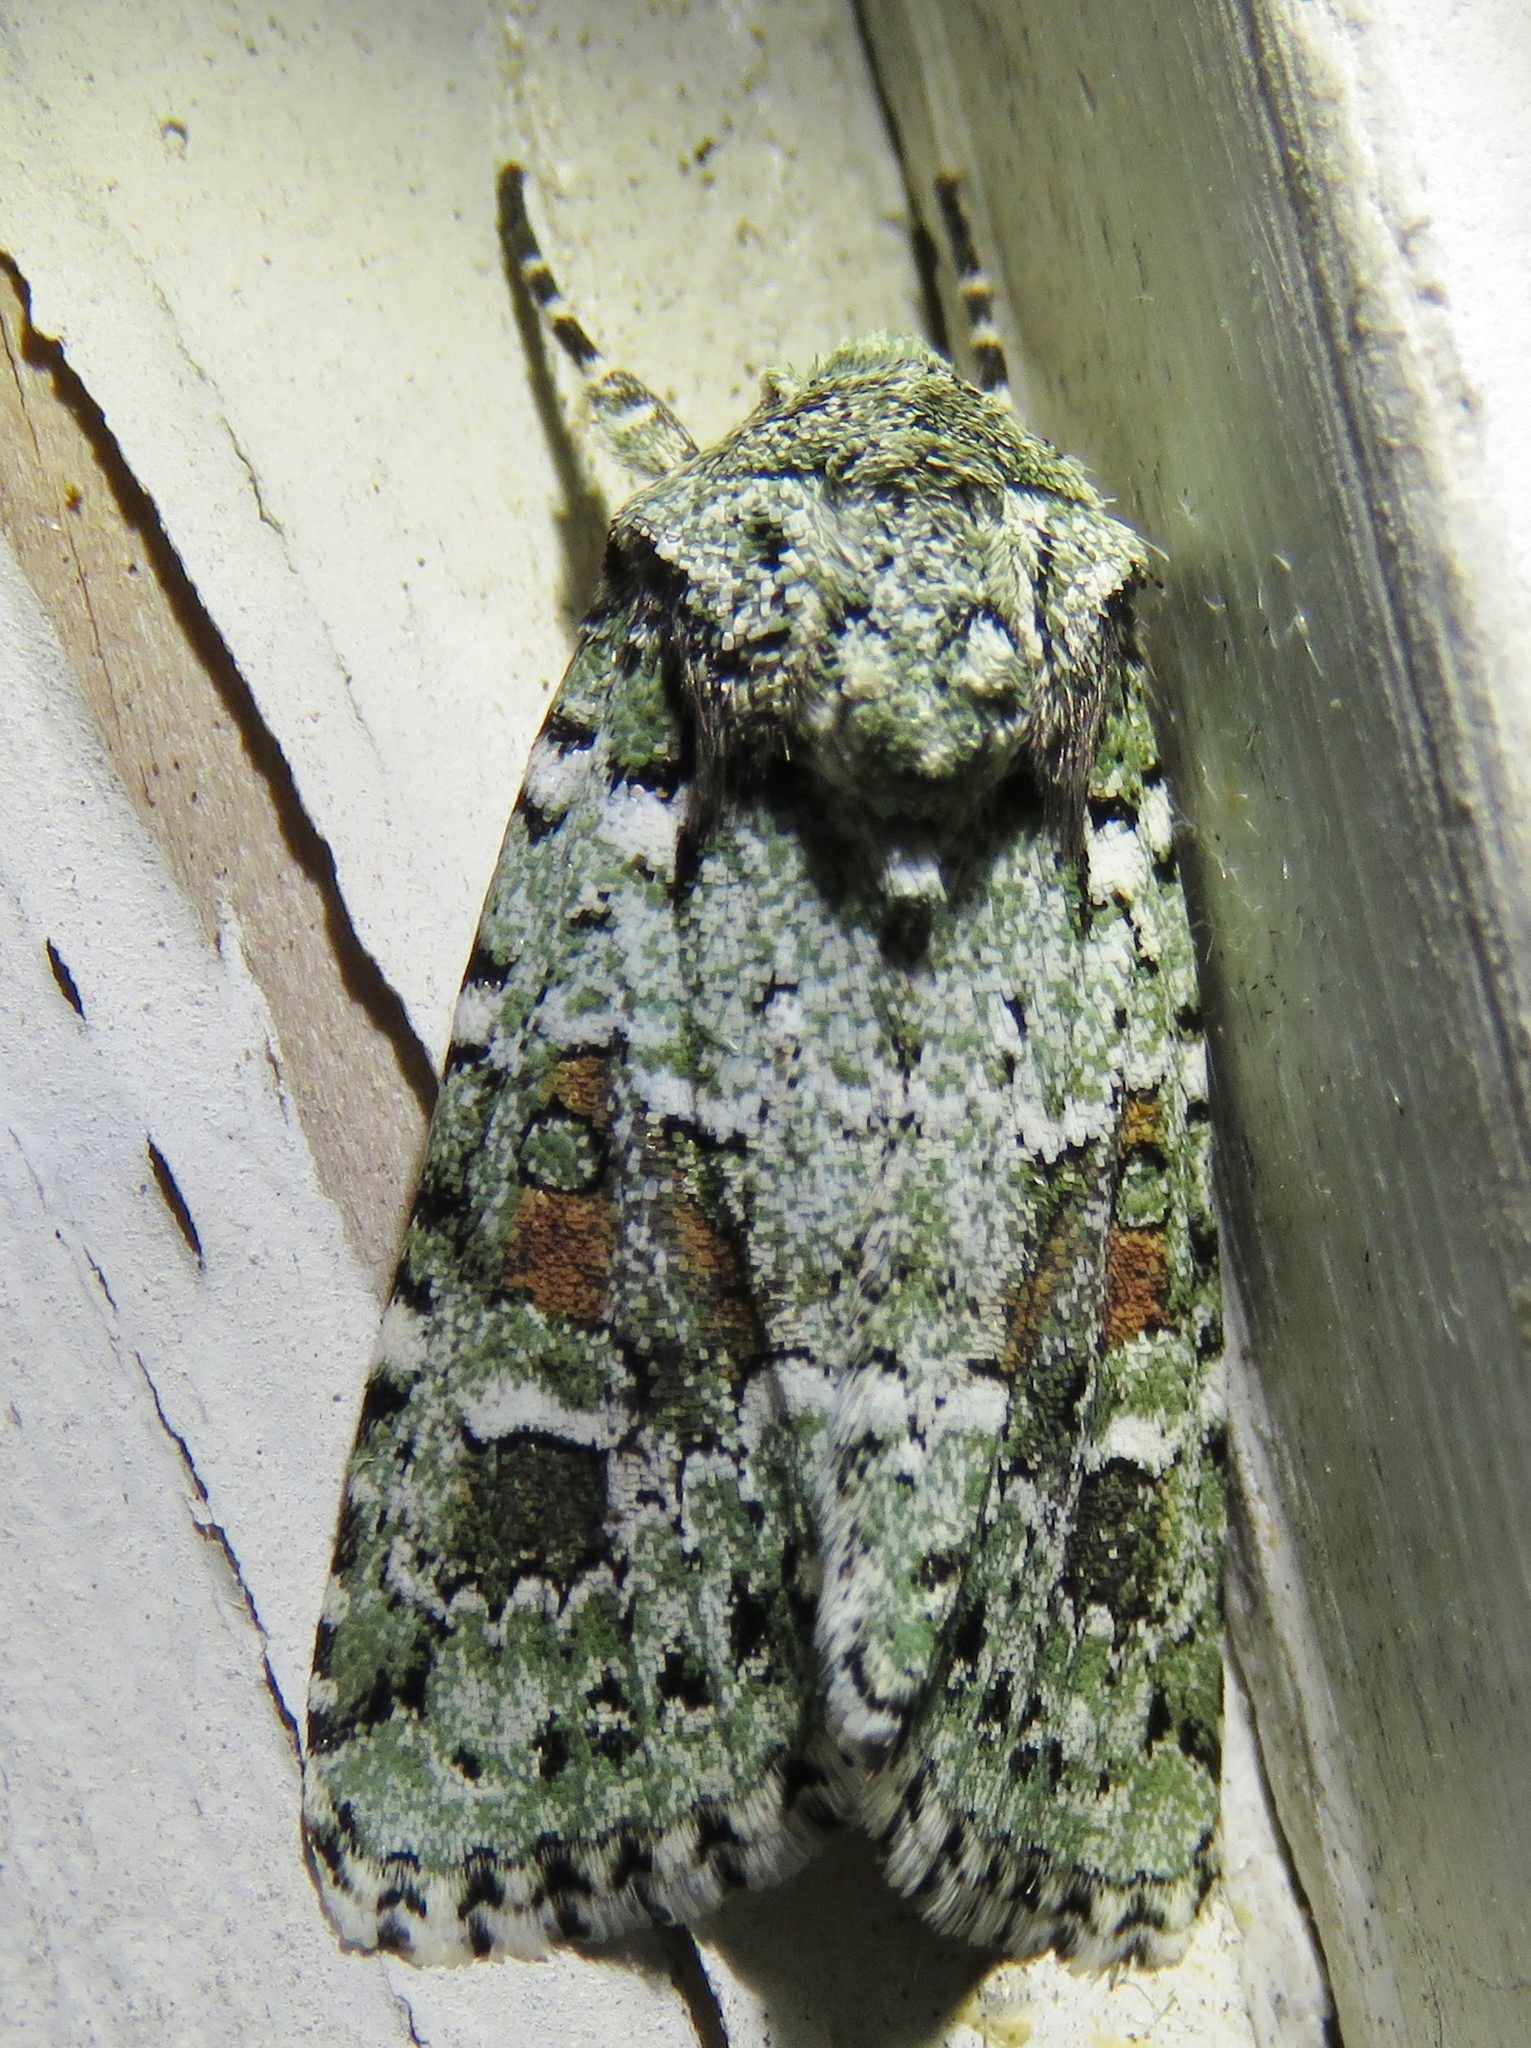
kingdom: Animalia
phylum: Arthropoda
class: Insecta
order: Lepidoptera
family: Noctuidae
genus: Lacinipolia
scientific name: Lacinipolia laudabilis
